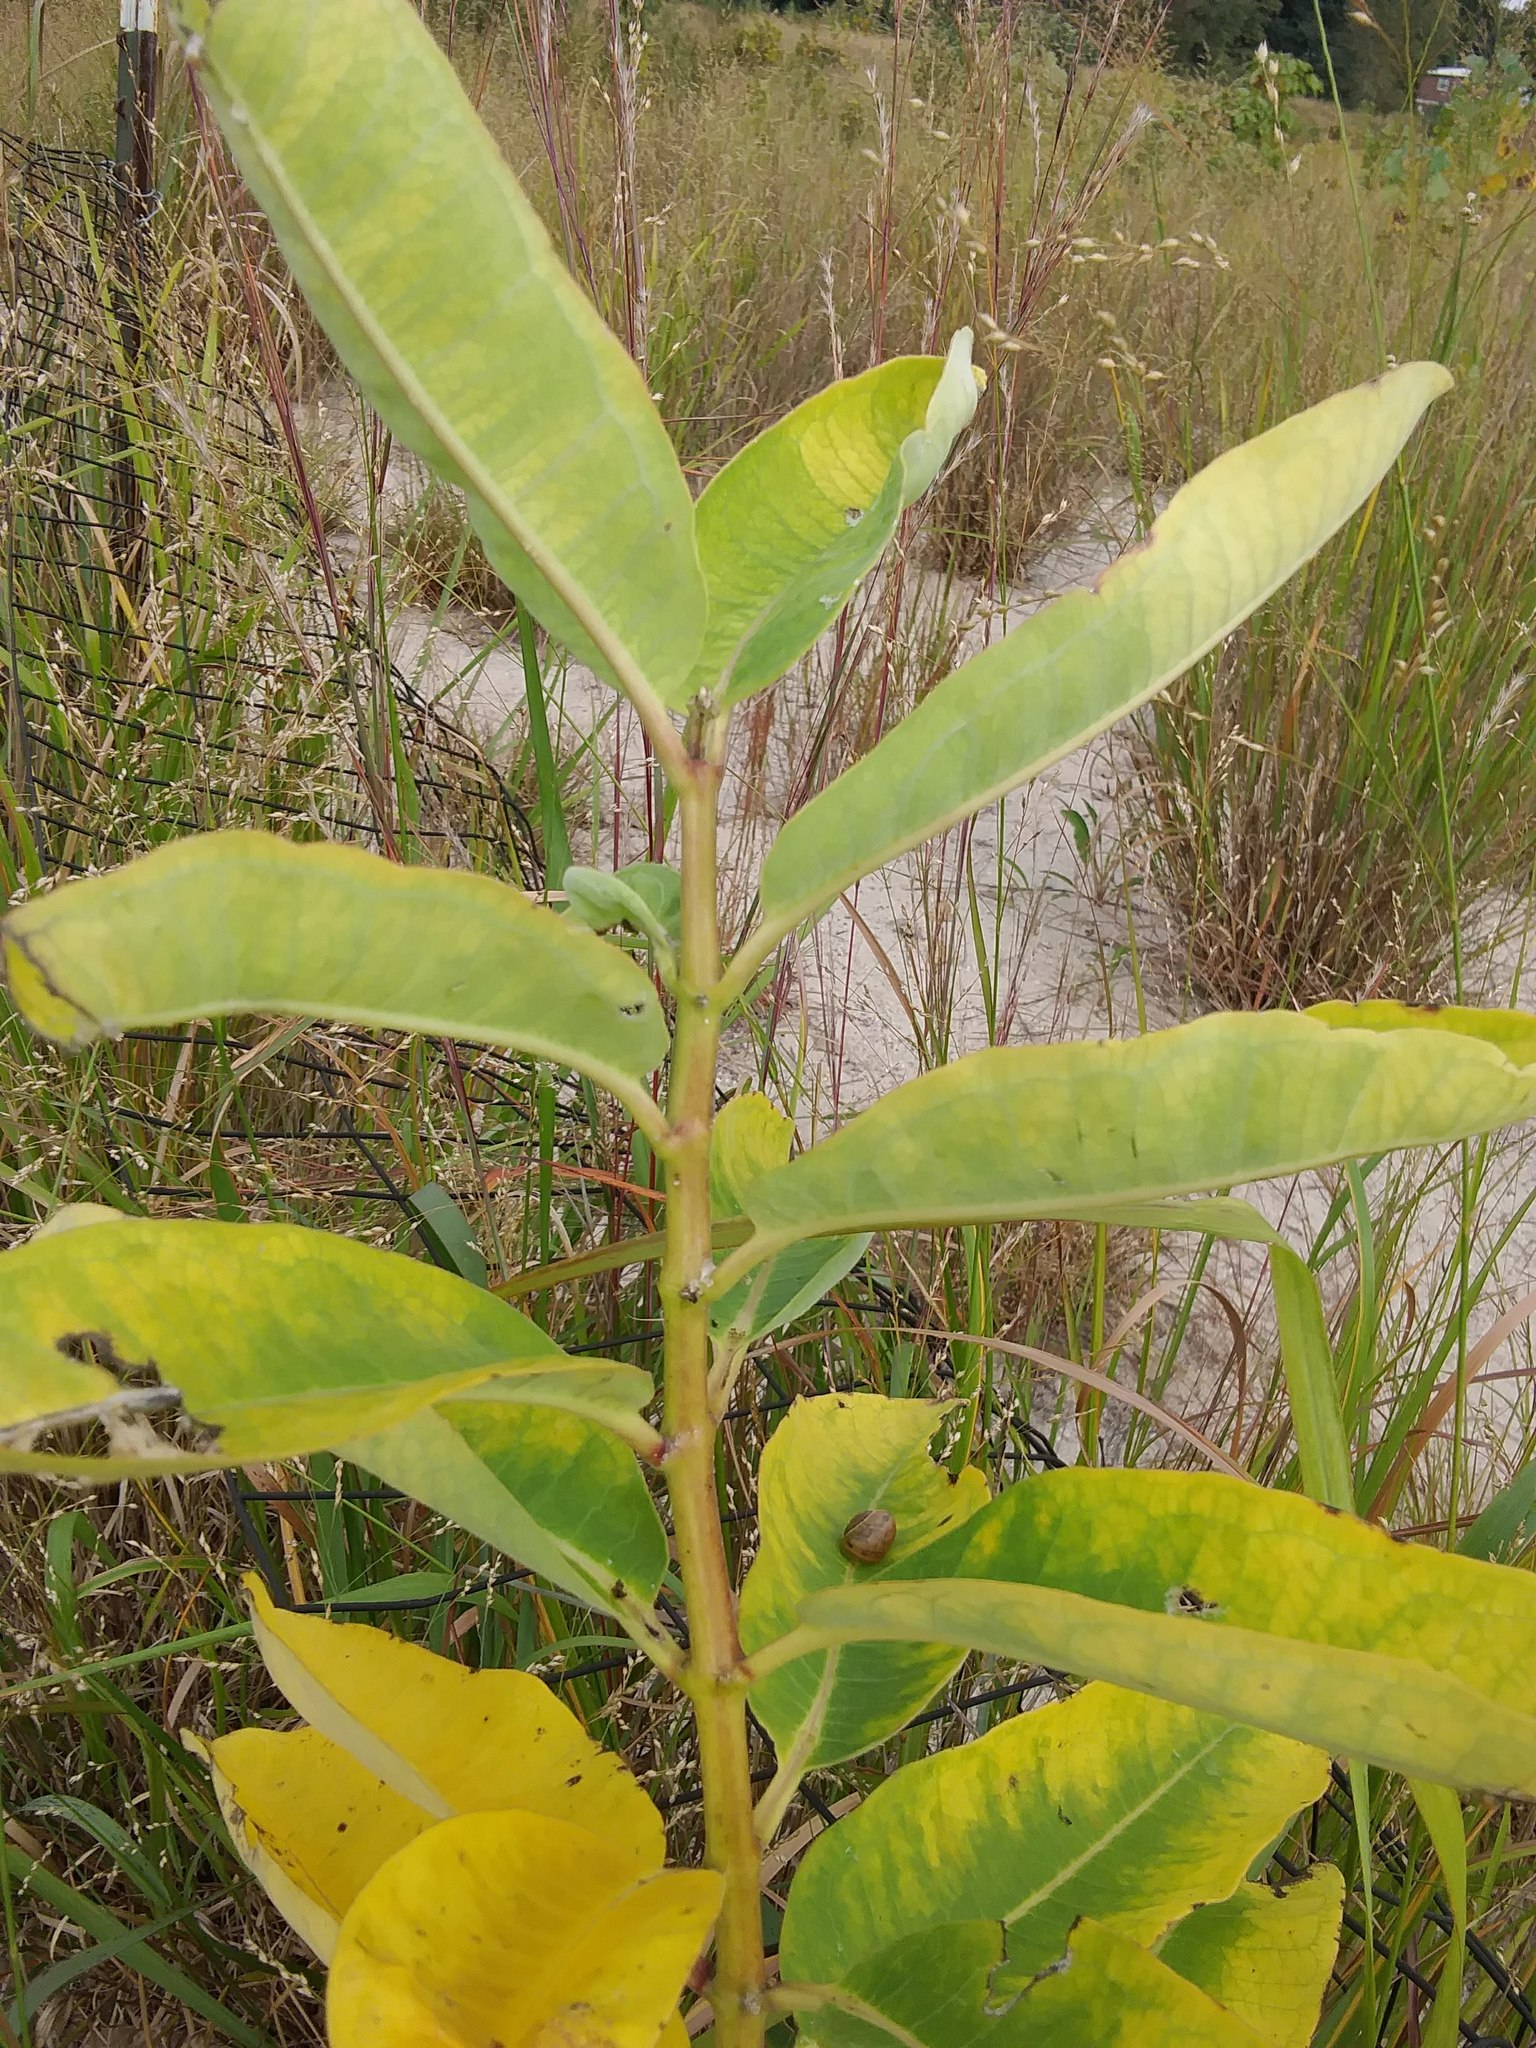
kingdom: Plantae
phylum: Tracheophyta
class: Magnoliopsida
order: Gentianales
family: Apocynaceae
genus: Asclepias
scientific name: Asclepias syriaca
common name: Common milkweed
